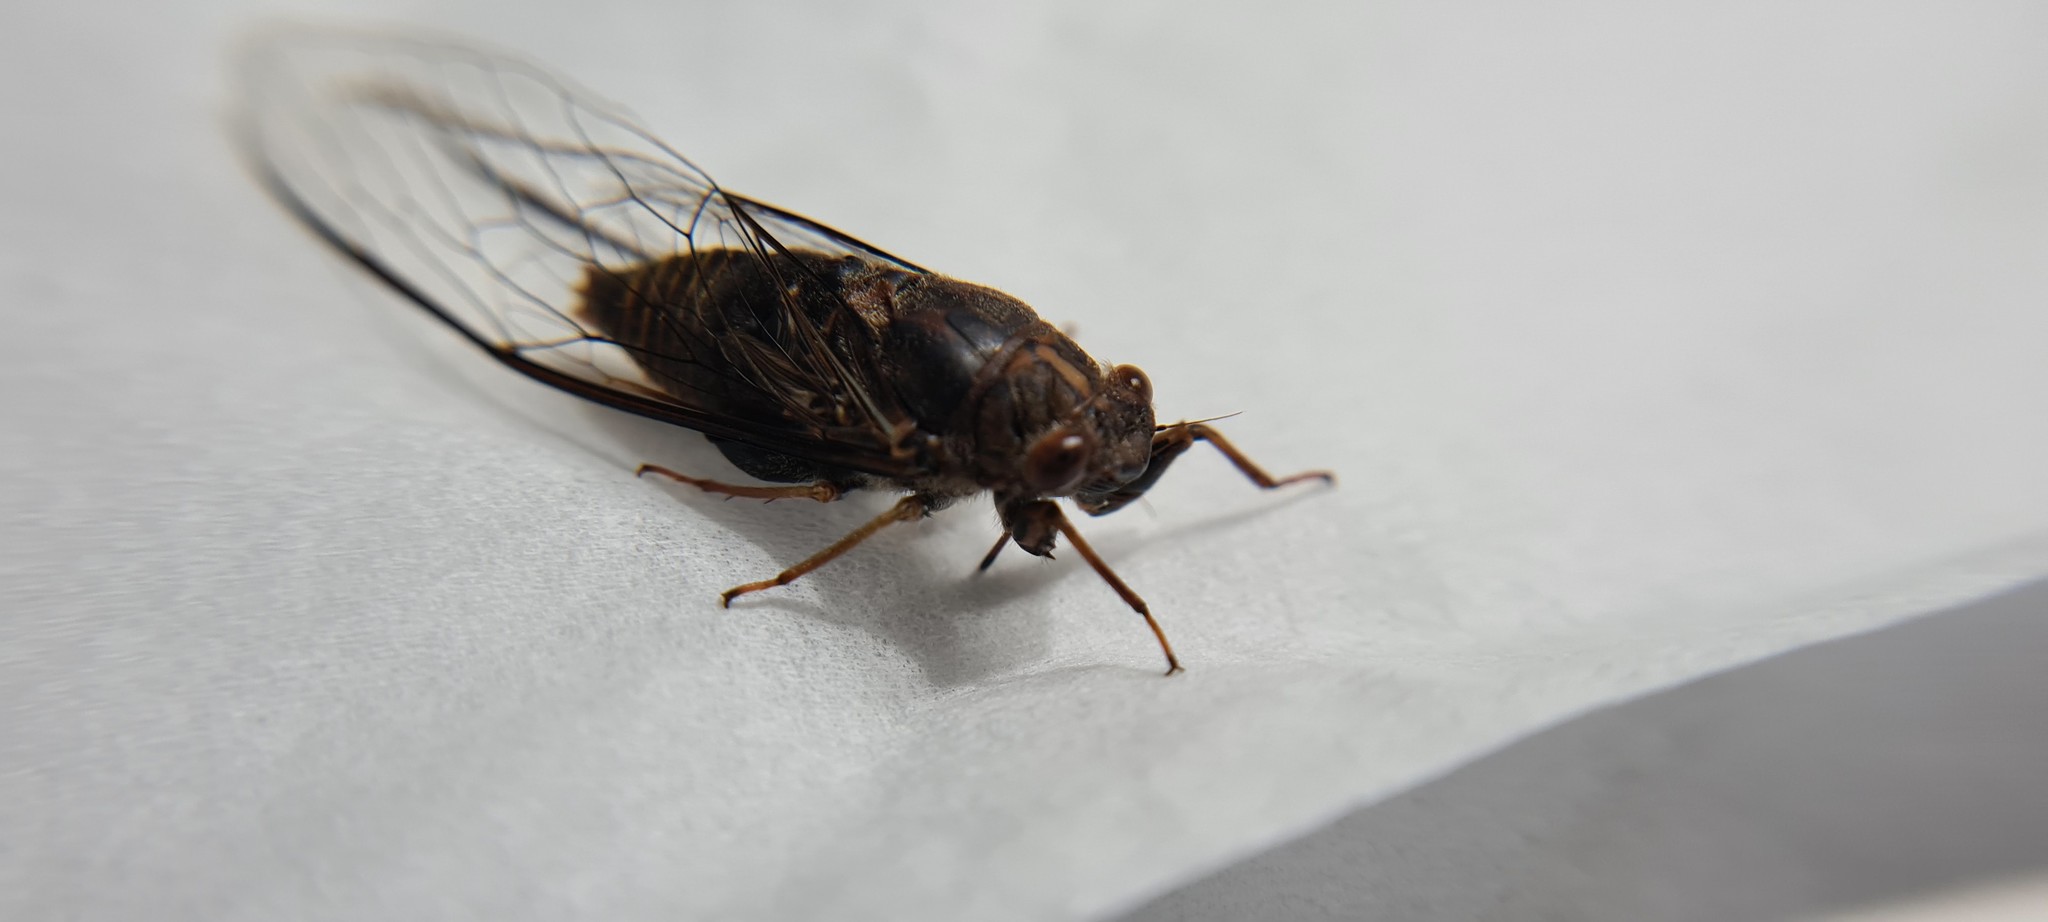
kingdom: Animalia
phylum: Arthropoda
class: Insecta
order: Hemiptera
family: Cicadidae
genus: Birrima
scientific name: Birrima varians
